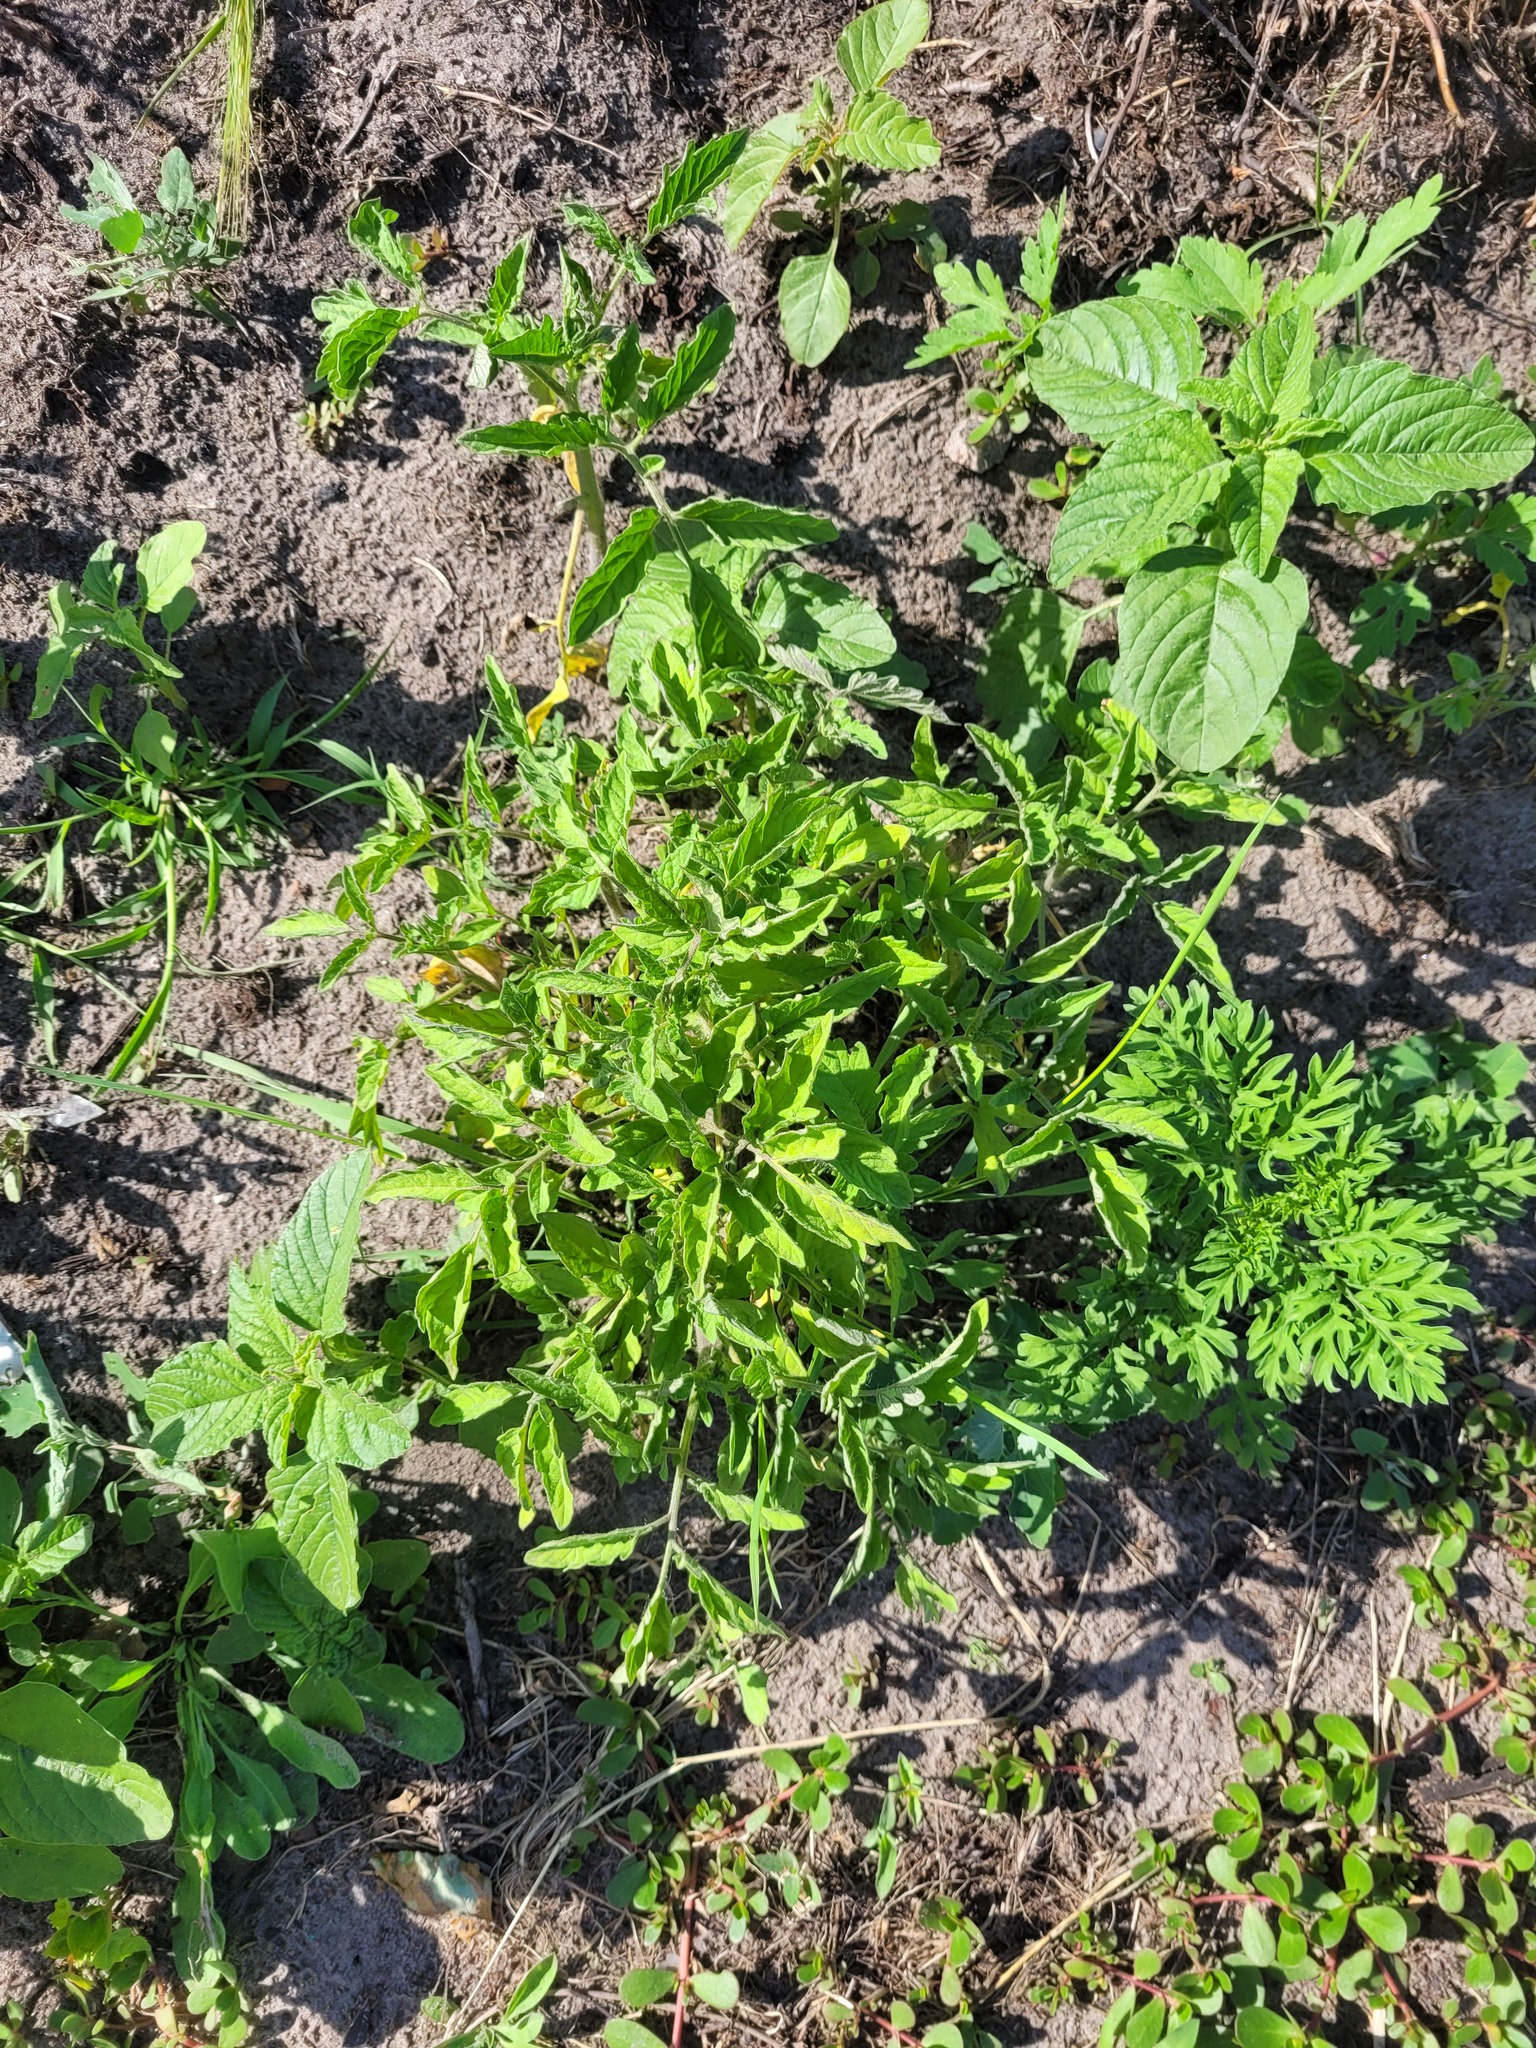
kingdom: Plantae
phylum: Tracheophyta
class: Magnoliopsida
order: Solanales
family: Solanaceae
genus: Solanum
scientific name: Solanum lycopersicum
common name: Garden tomato
